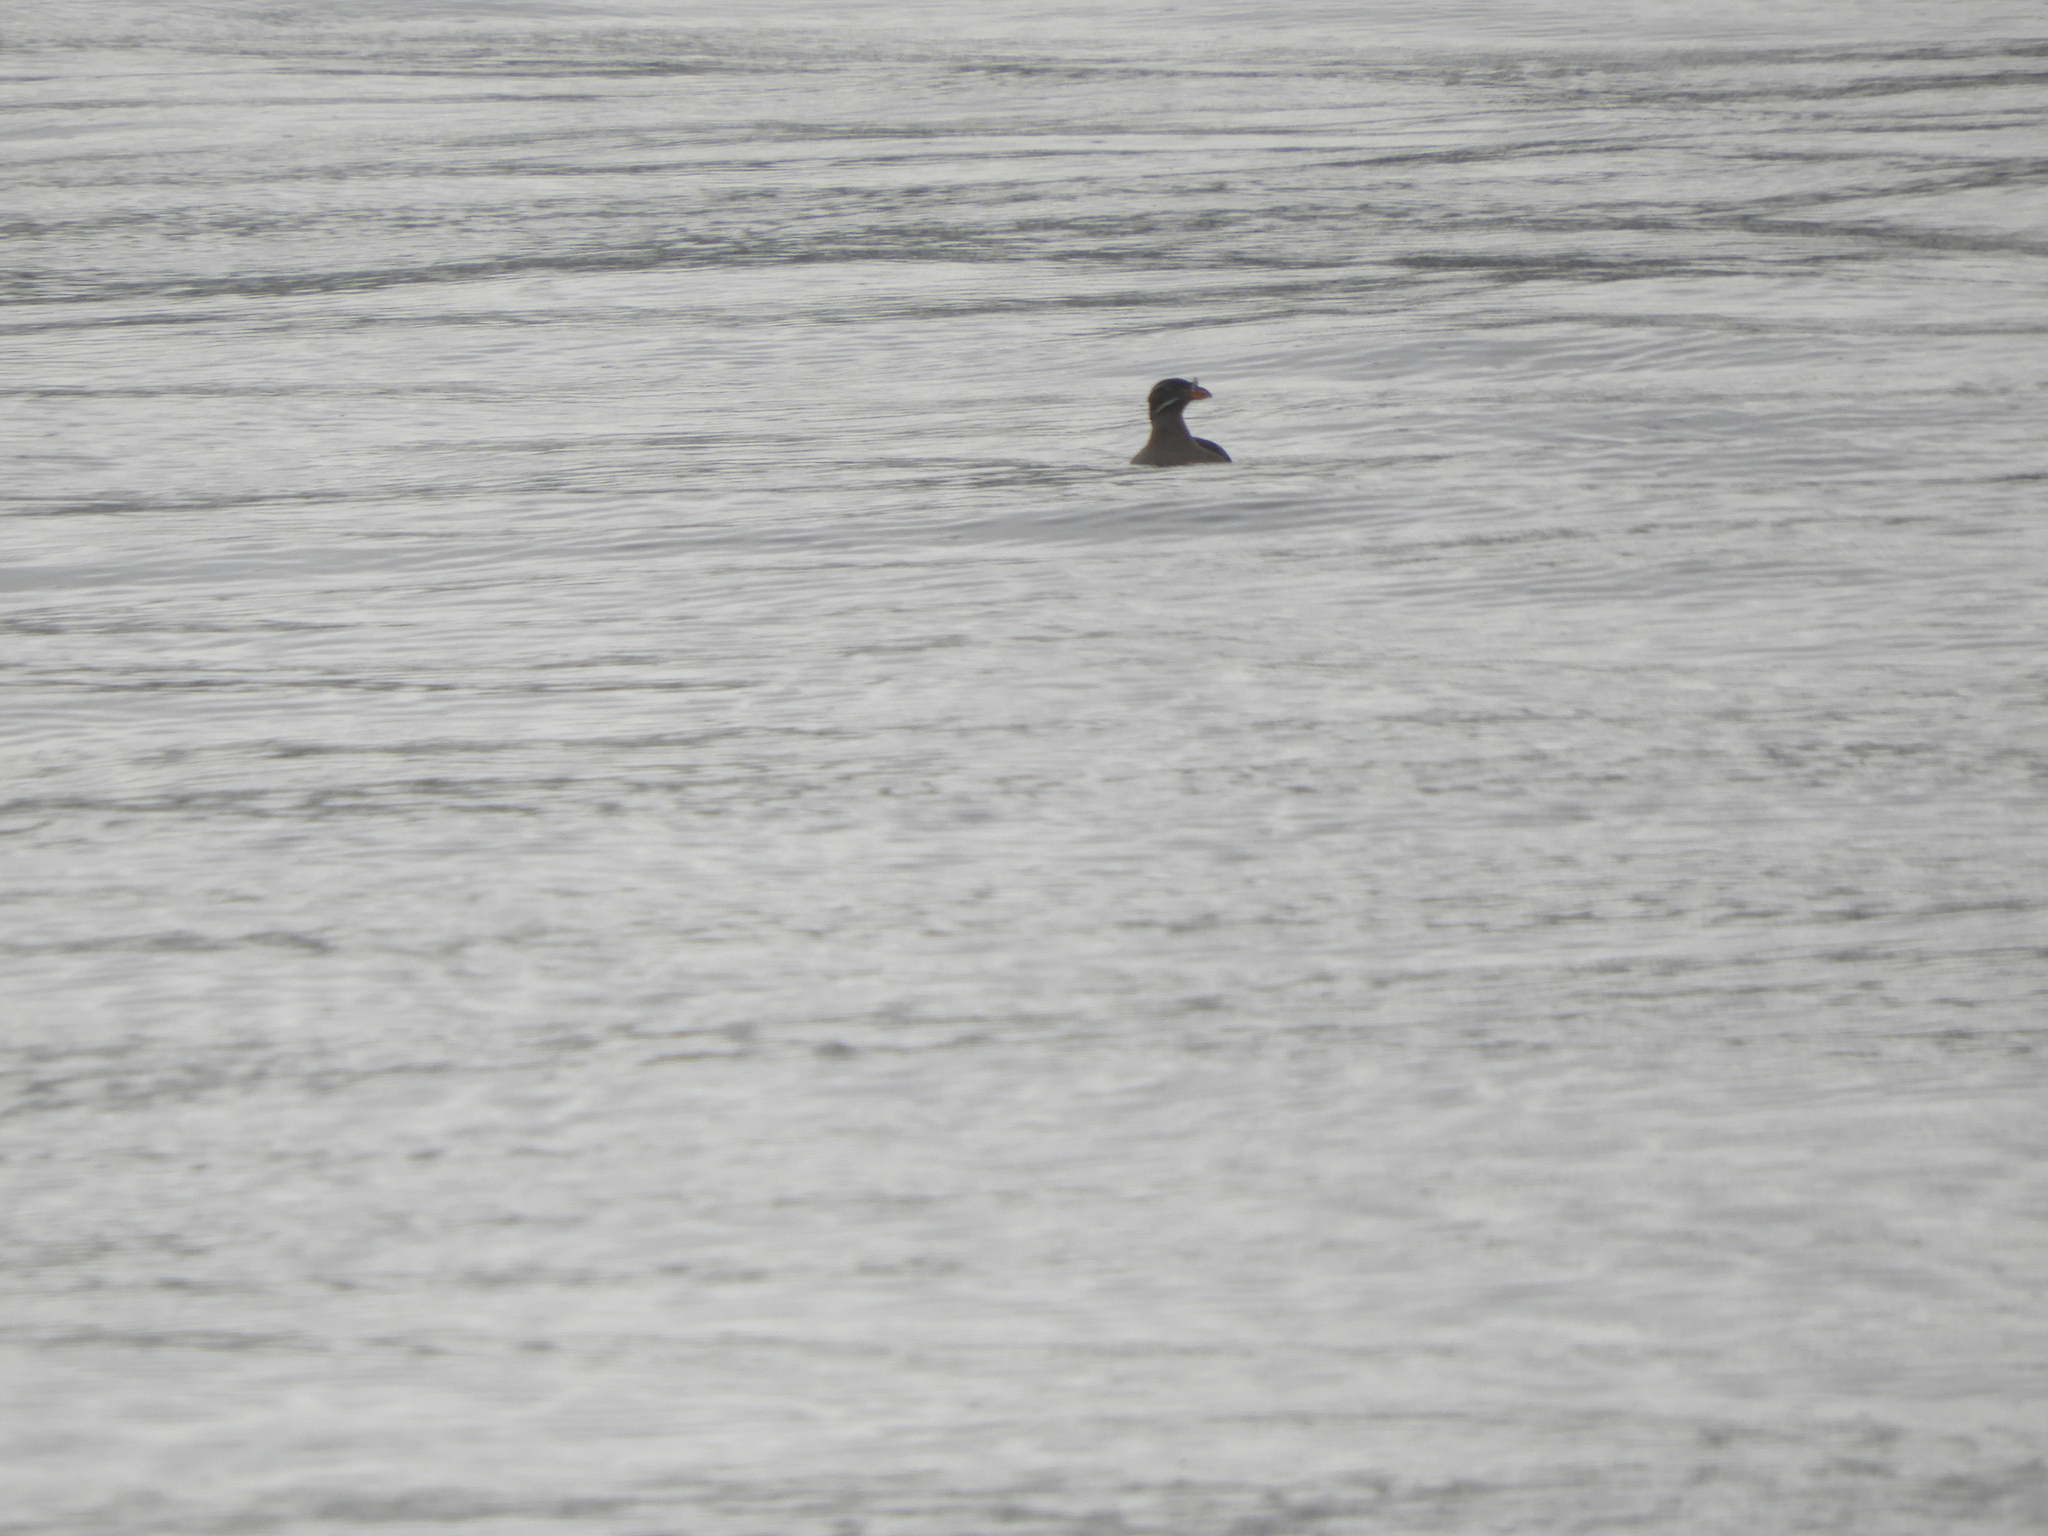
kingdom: Animalia
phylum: Chordata
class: Aves
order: Charadriiformes
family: Alcidae
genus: Cerorhinca
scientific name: Cerorhinca monocerata
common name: Rhinoceros auklet
